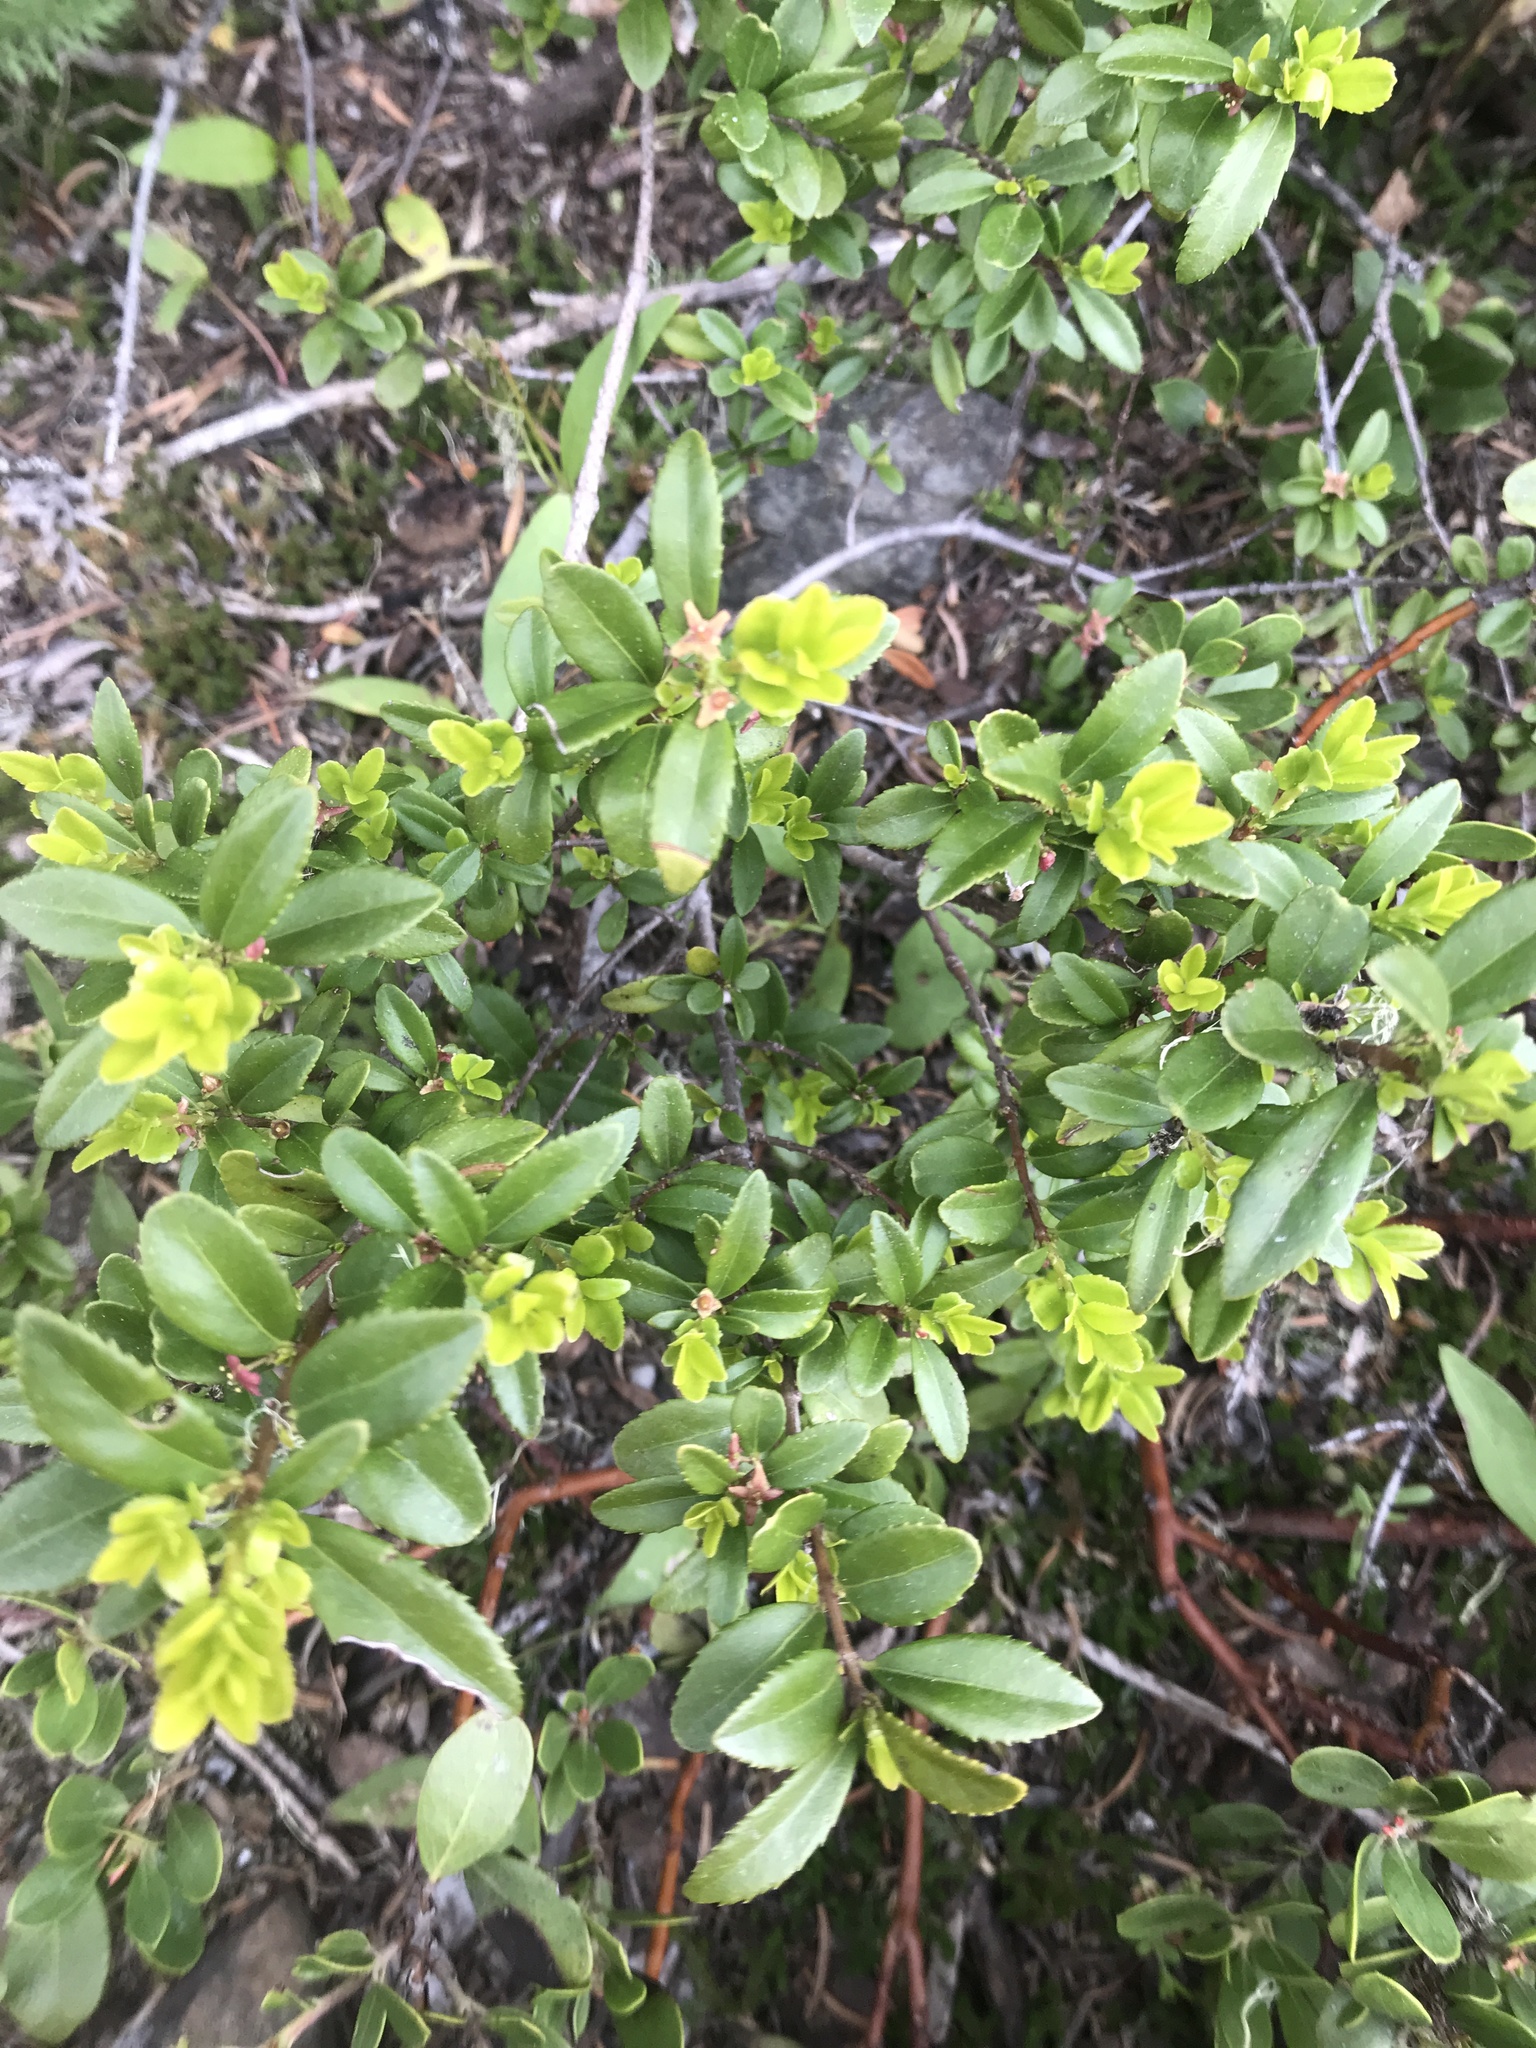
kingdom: Plantae
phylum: Tracheophyta
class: Magnoliopsida
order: Celastrales
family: Celastraceae
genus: Paxistima
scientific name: Paxistima myrsinites
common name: Mountain-lover
